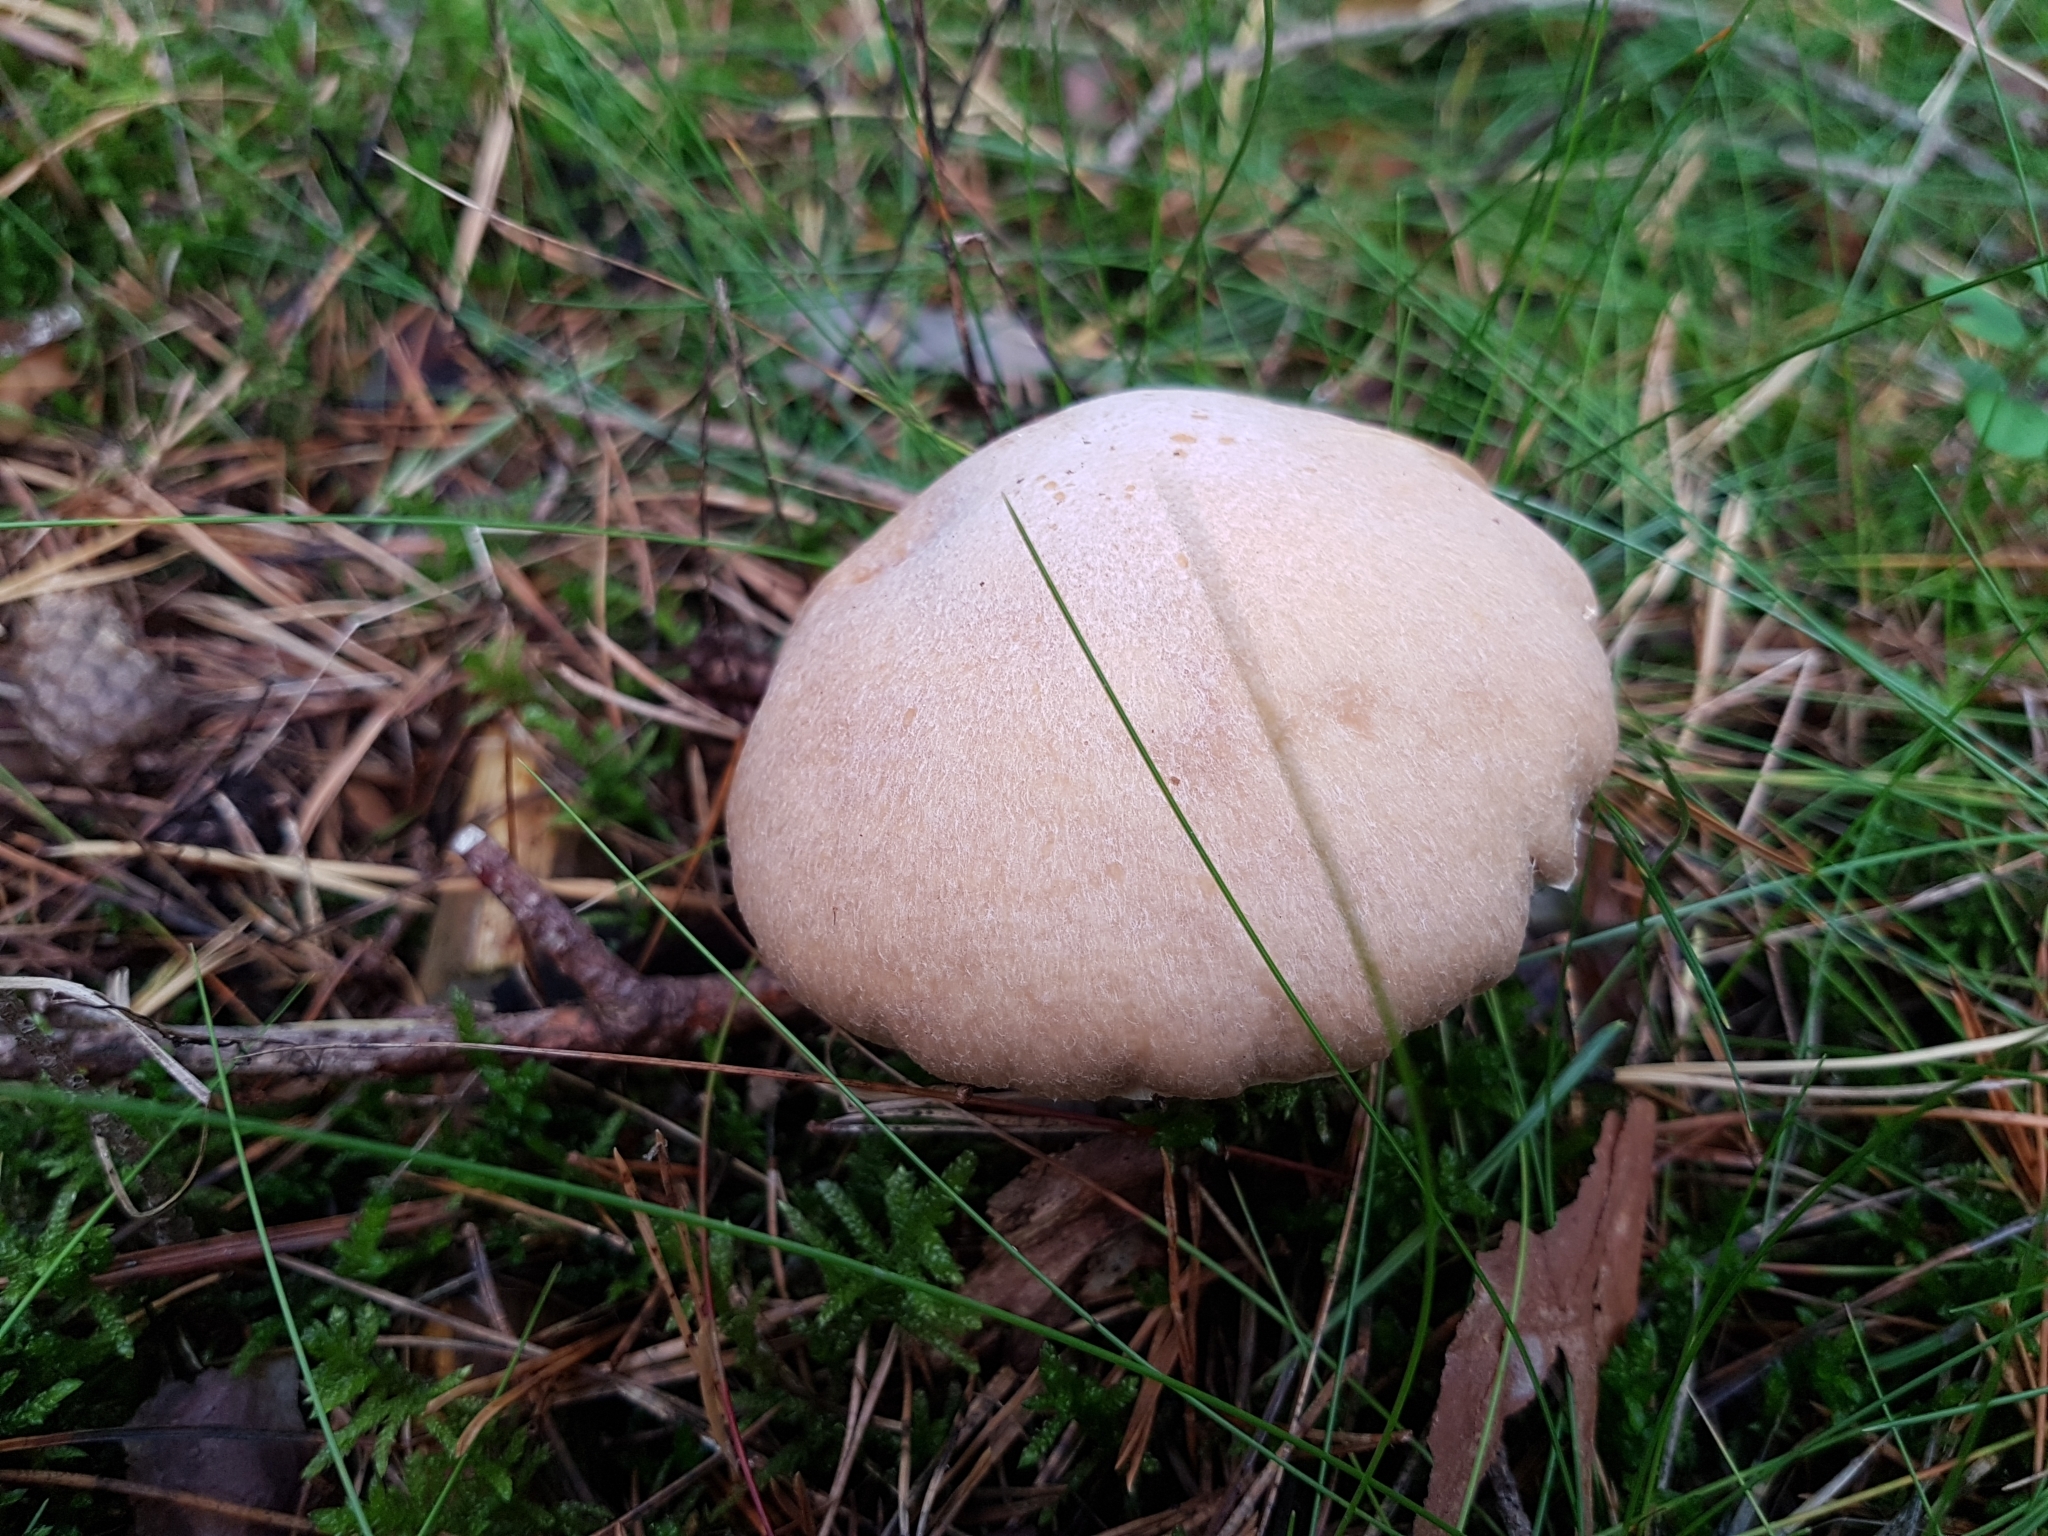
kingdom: Fungi
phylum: Basidiomycota
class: Agaricomycetes
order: Agaricales
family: Cortinariaceae
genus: Cortinarius
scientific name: Cortinarius caperatus
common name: The gypsy
